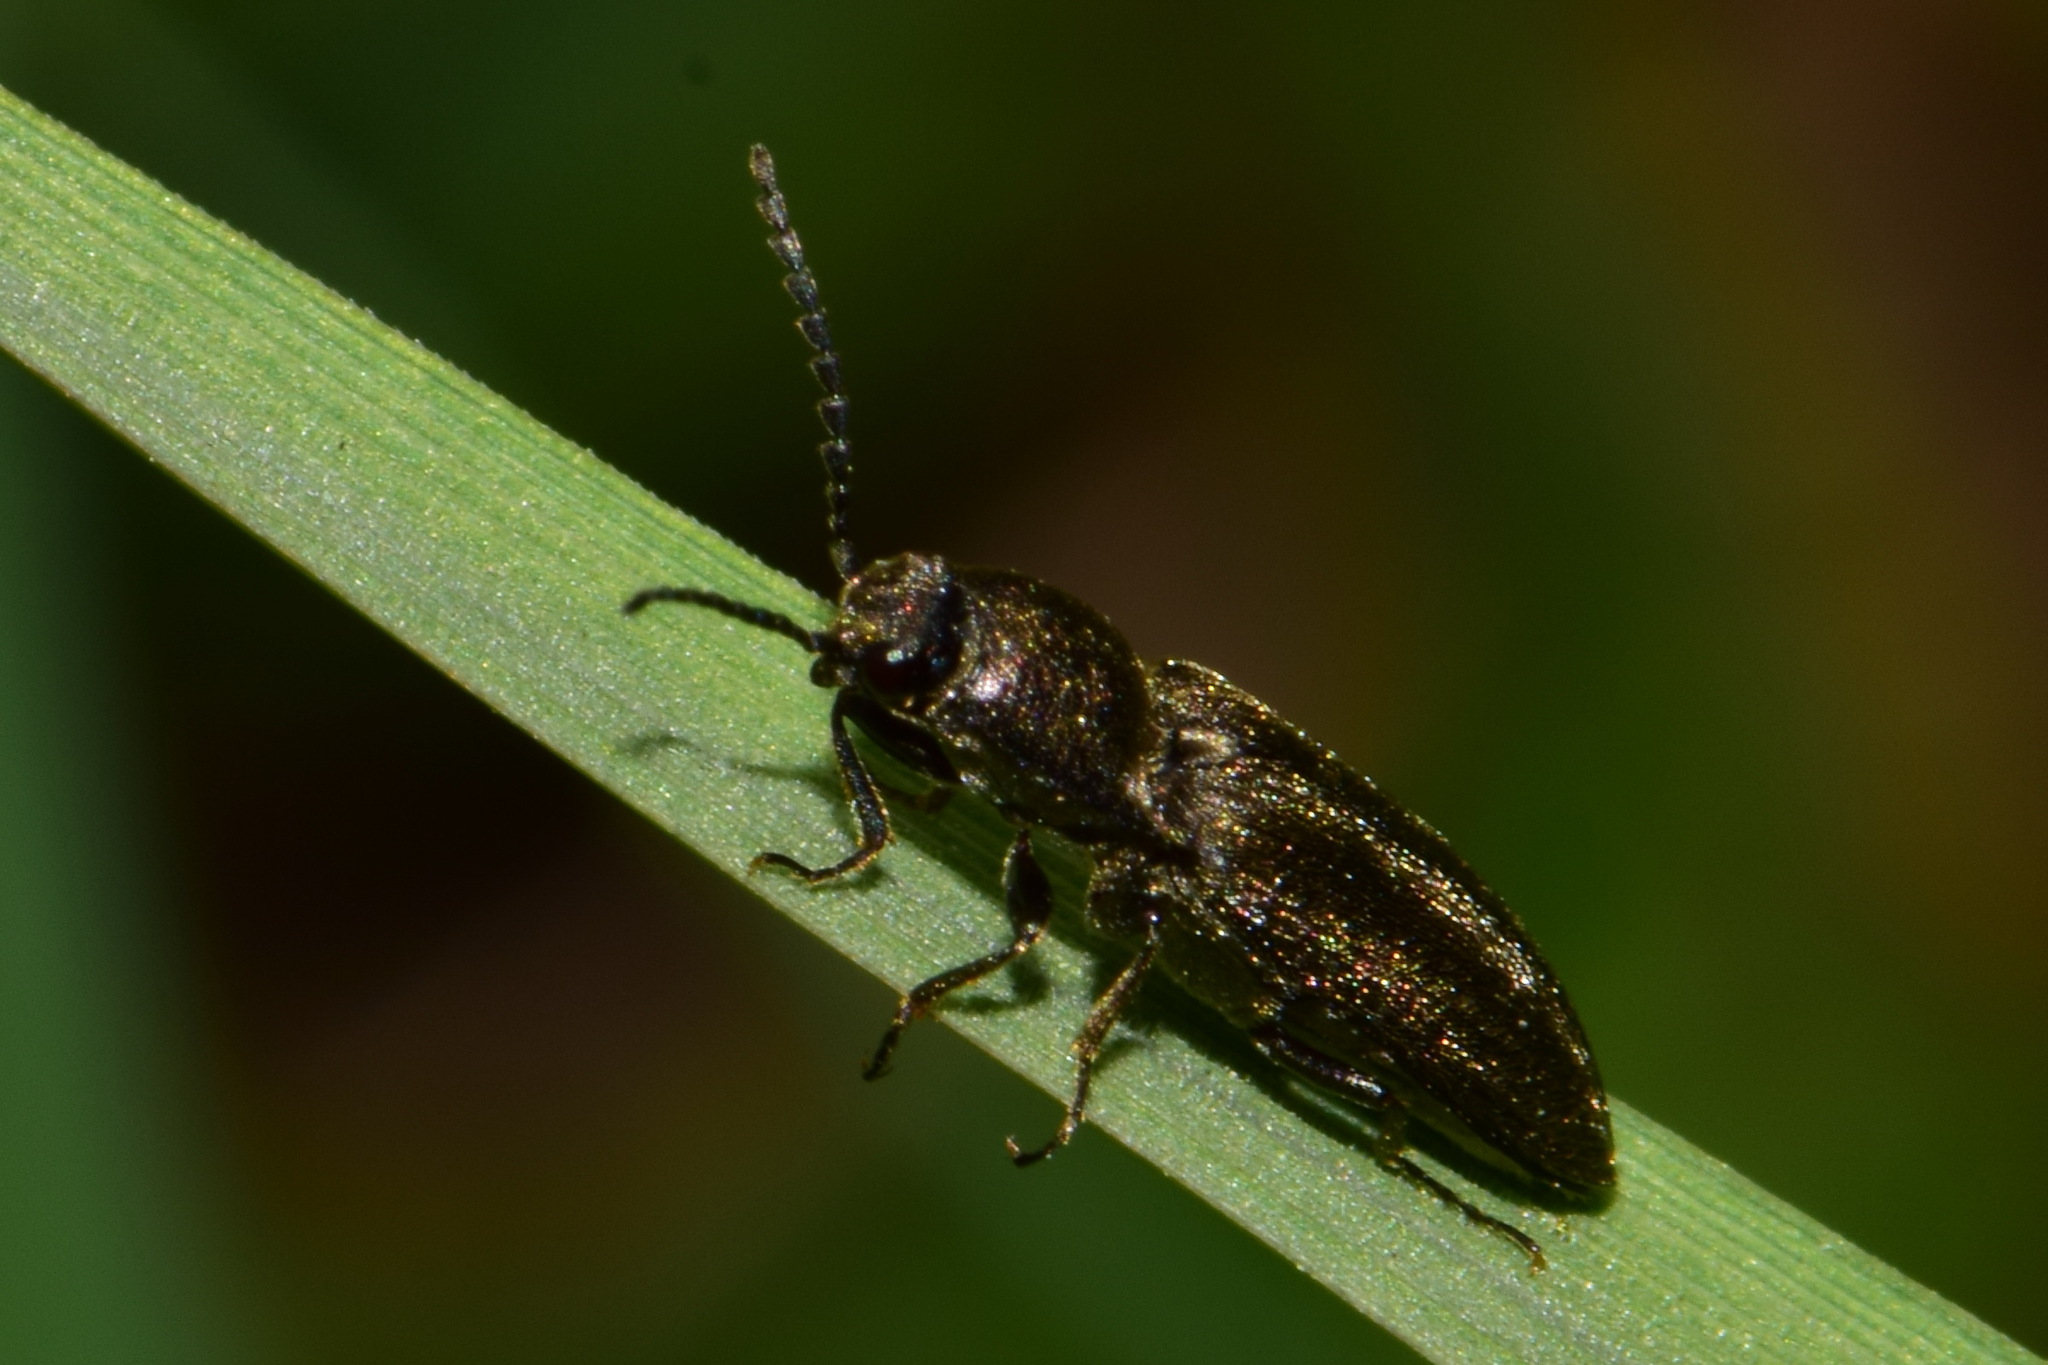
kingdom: Animalia
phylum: Arthropoda
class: Insecta
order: Coleoptera
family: Elateridae
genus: Cidnopus
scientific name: Cidnopus aeruginosus
